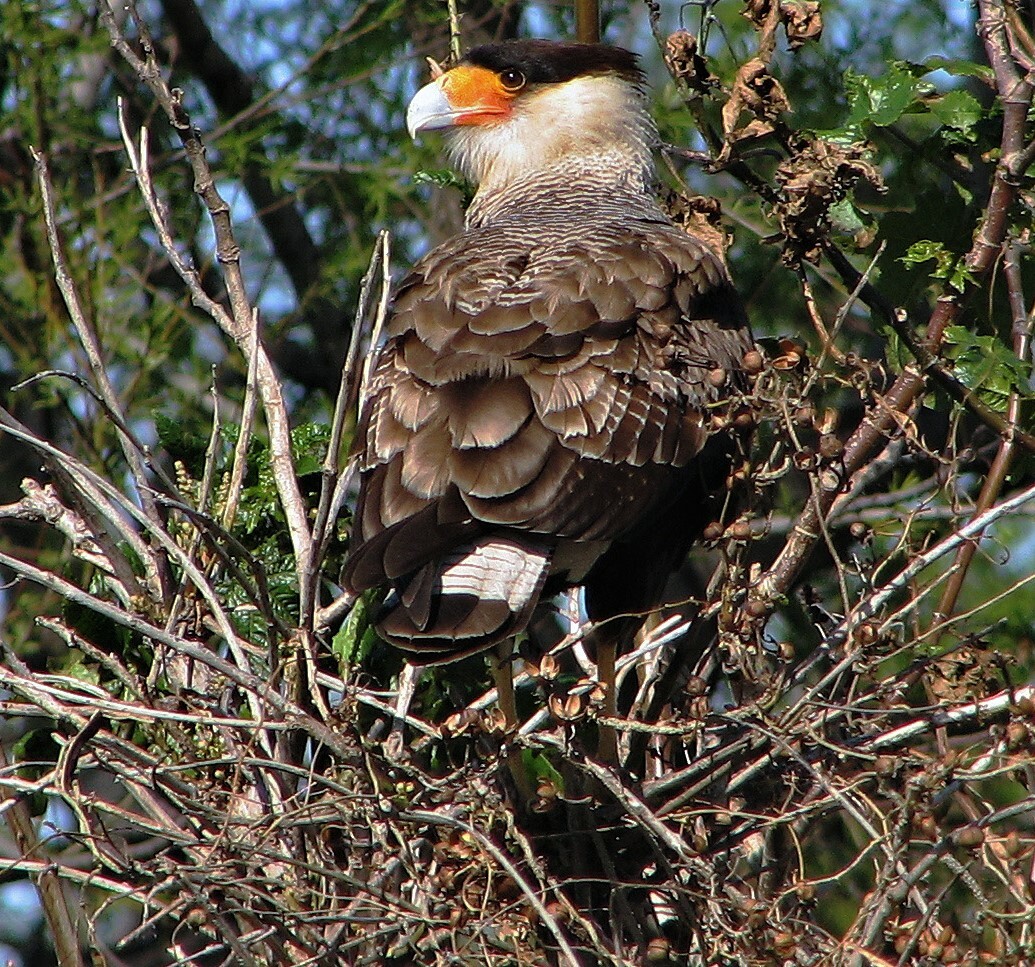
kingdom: Animalia
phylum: Chordata
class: Aves
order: Falconiformes
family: Falconidae
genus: Caracara
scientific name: Caracara plancus
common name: Southern caracara
